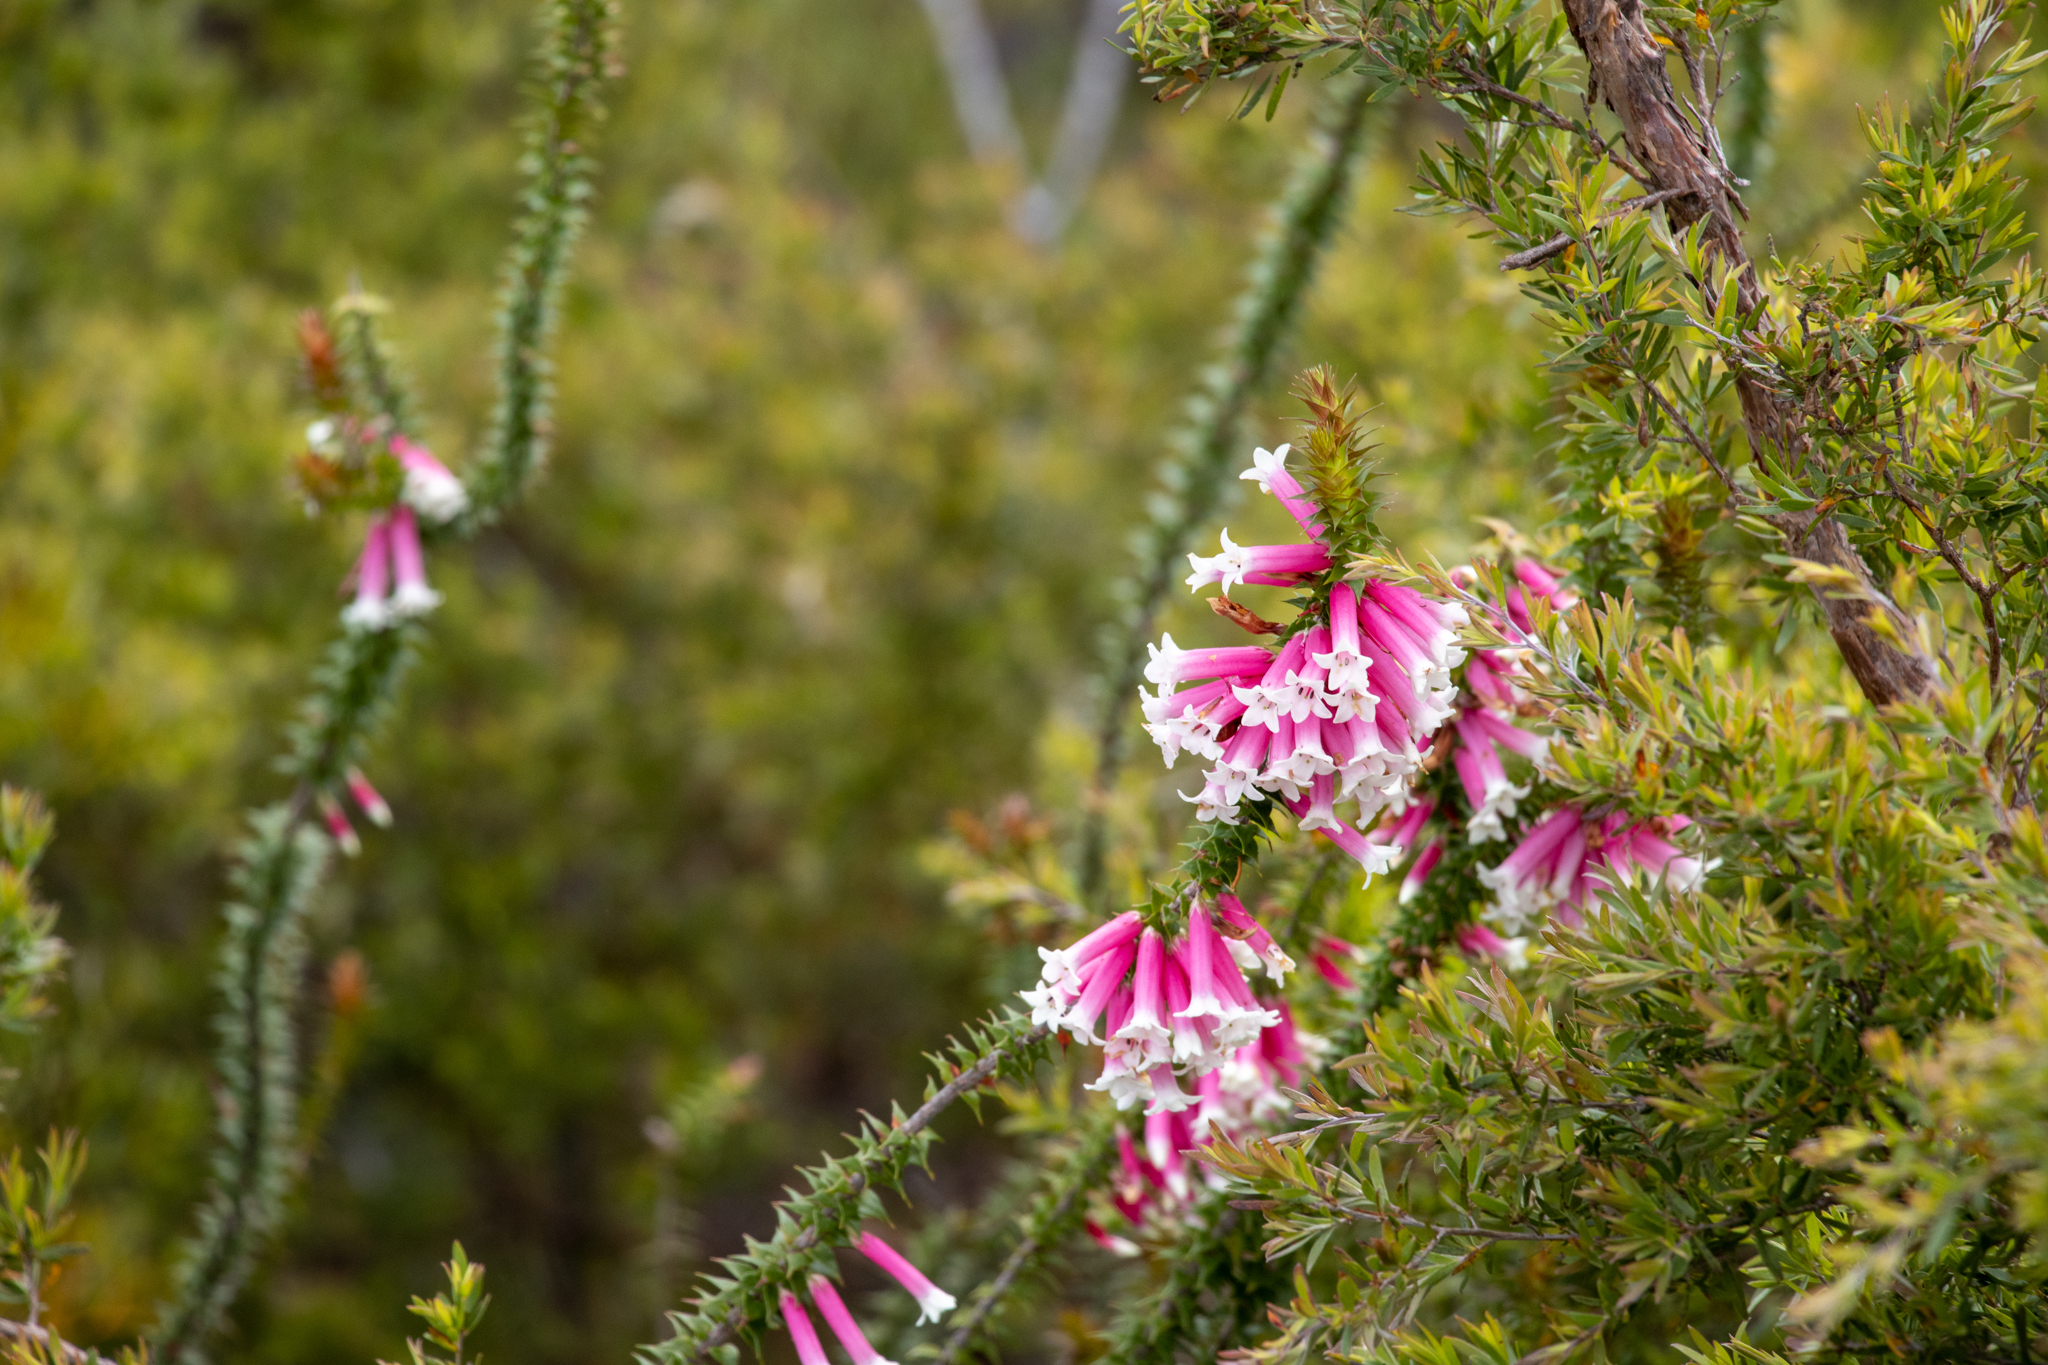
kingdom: Plantae
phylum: Tracheophyta
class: Magnoliopsida
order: Ericales
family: Ericaceae
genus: Epacris
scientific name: Epacris longiflora
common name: Fuchsia-heath
